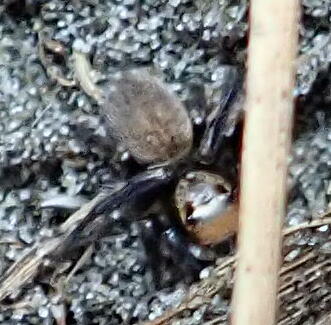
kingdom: Animalia
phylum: Arthropoda
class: Arachnida
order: Araneae
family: Salticidae
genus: Maratus
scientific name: Maratus griseus
